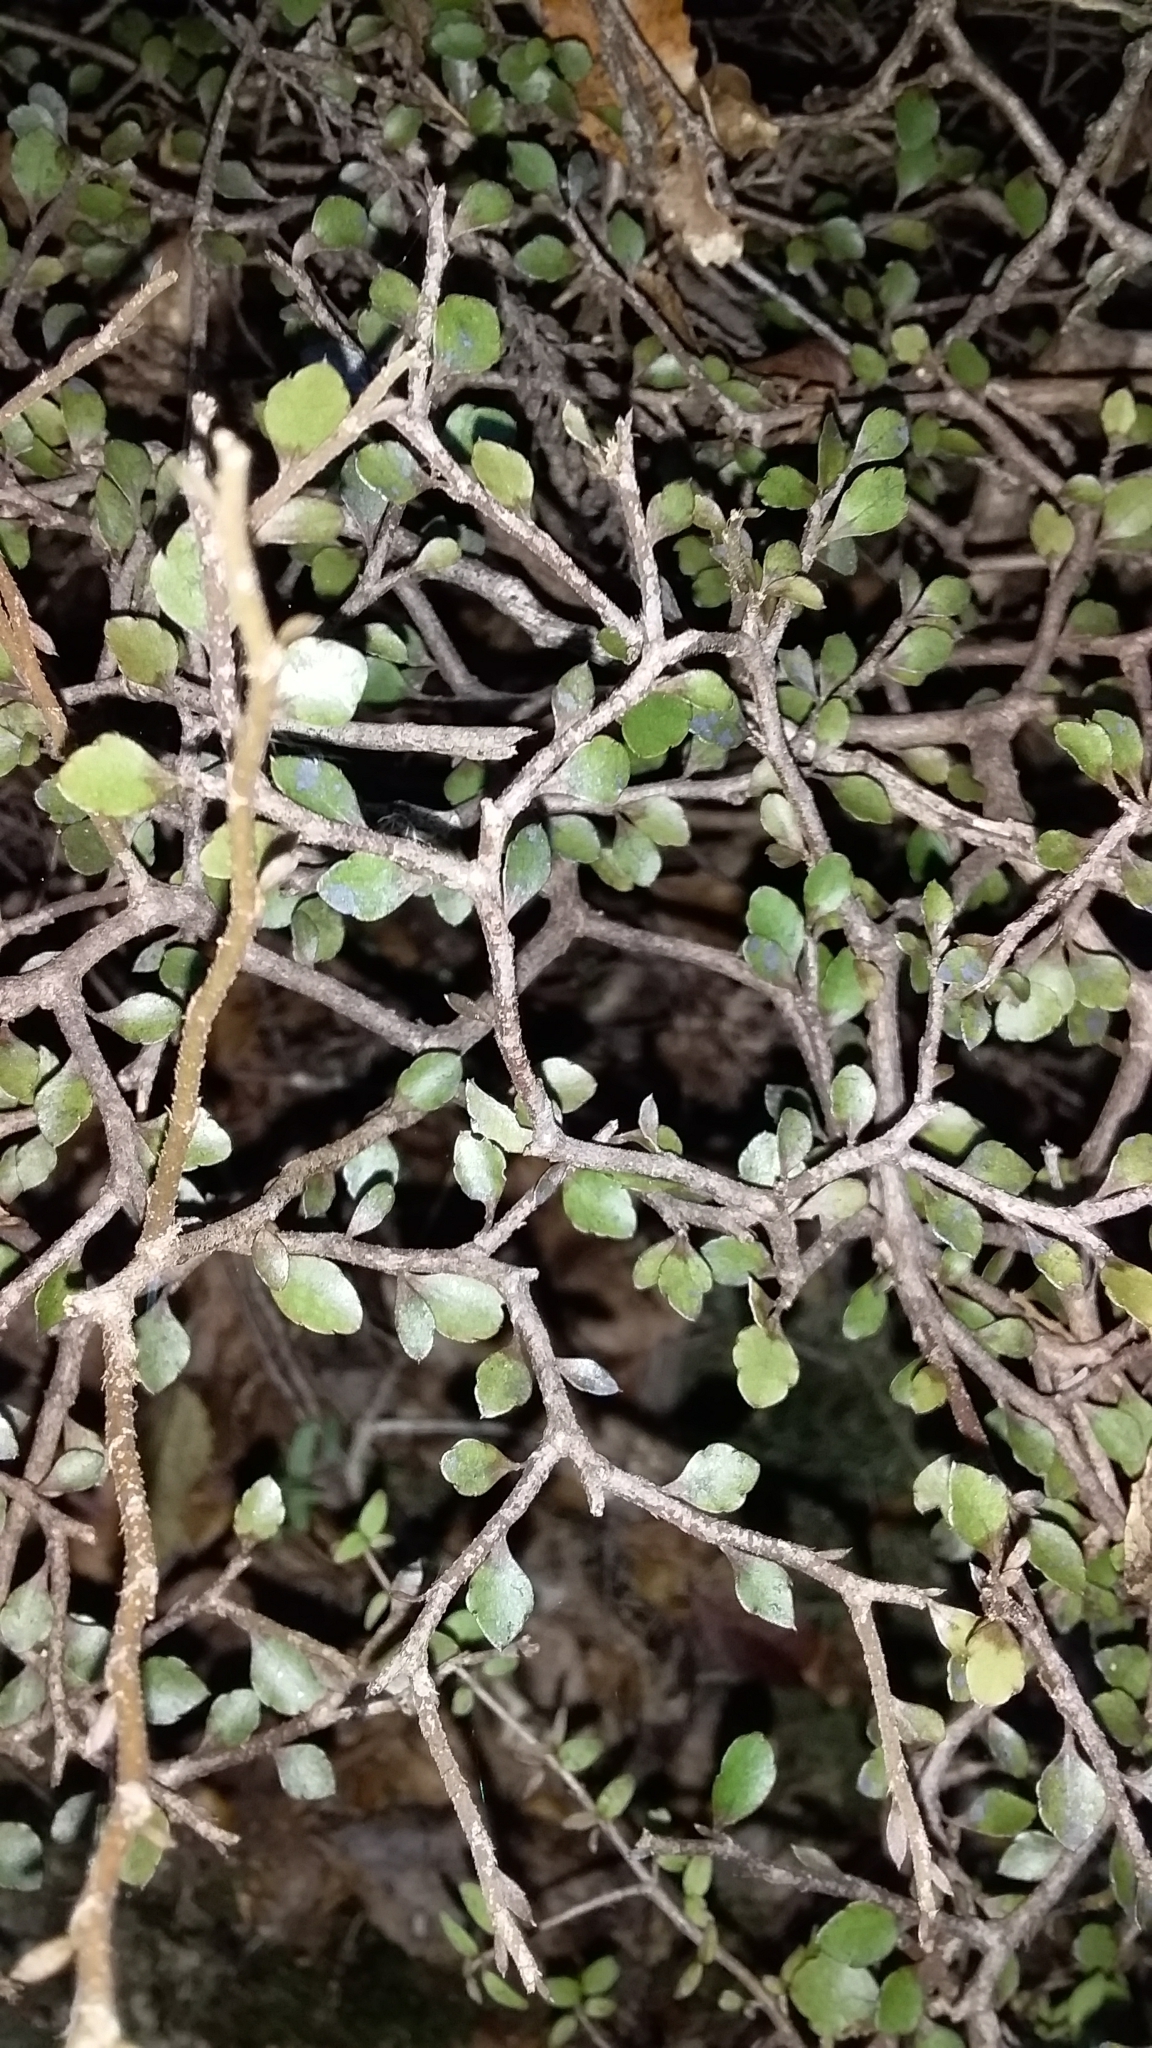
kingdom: Plantae
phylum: Tracheophyta
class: Magnoliopsida
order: Apiales
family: Araliaceae
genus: Raukaua
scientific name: Raukaua anomalus
